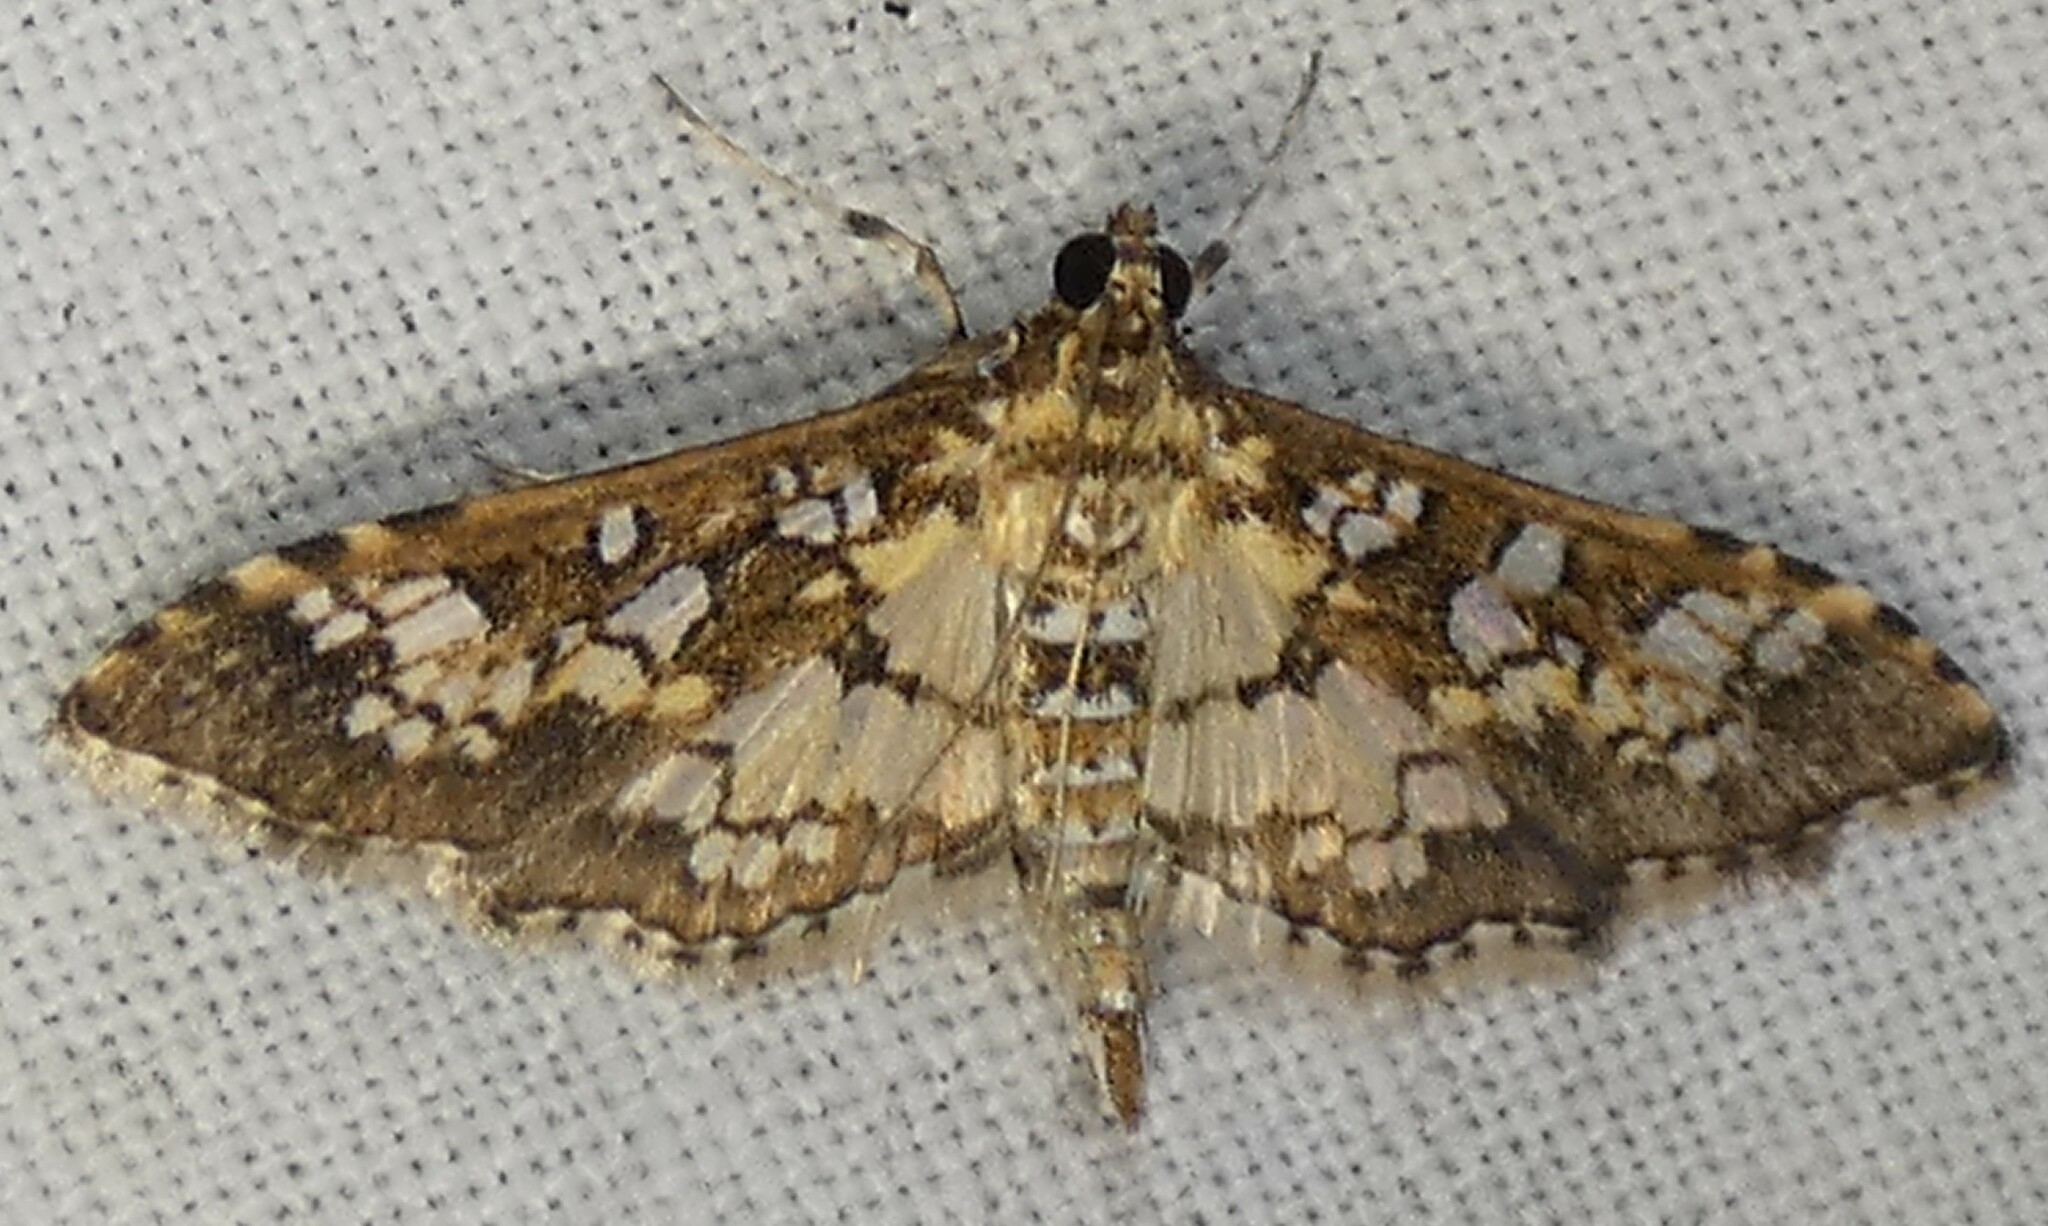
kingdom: Animalia
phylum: Arthropoda
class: Insecta
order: Lepidoptera
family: Crambidae
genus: Samea
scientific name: Samea ecclesialis
